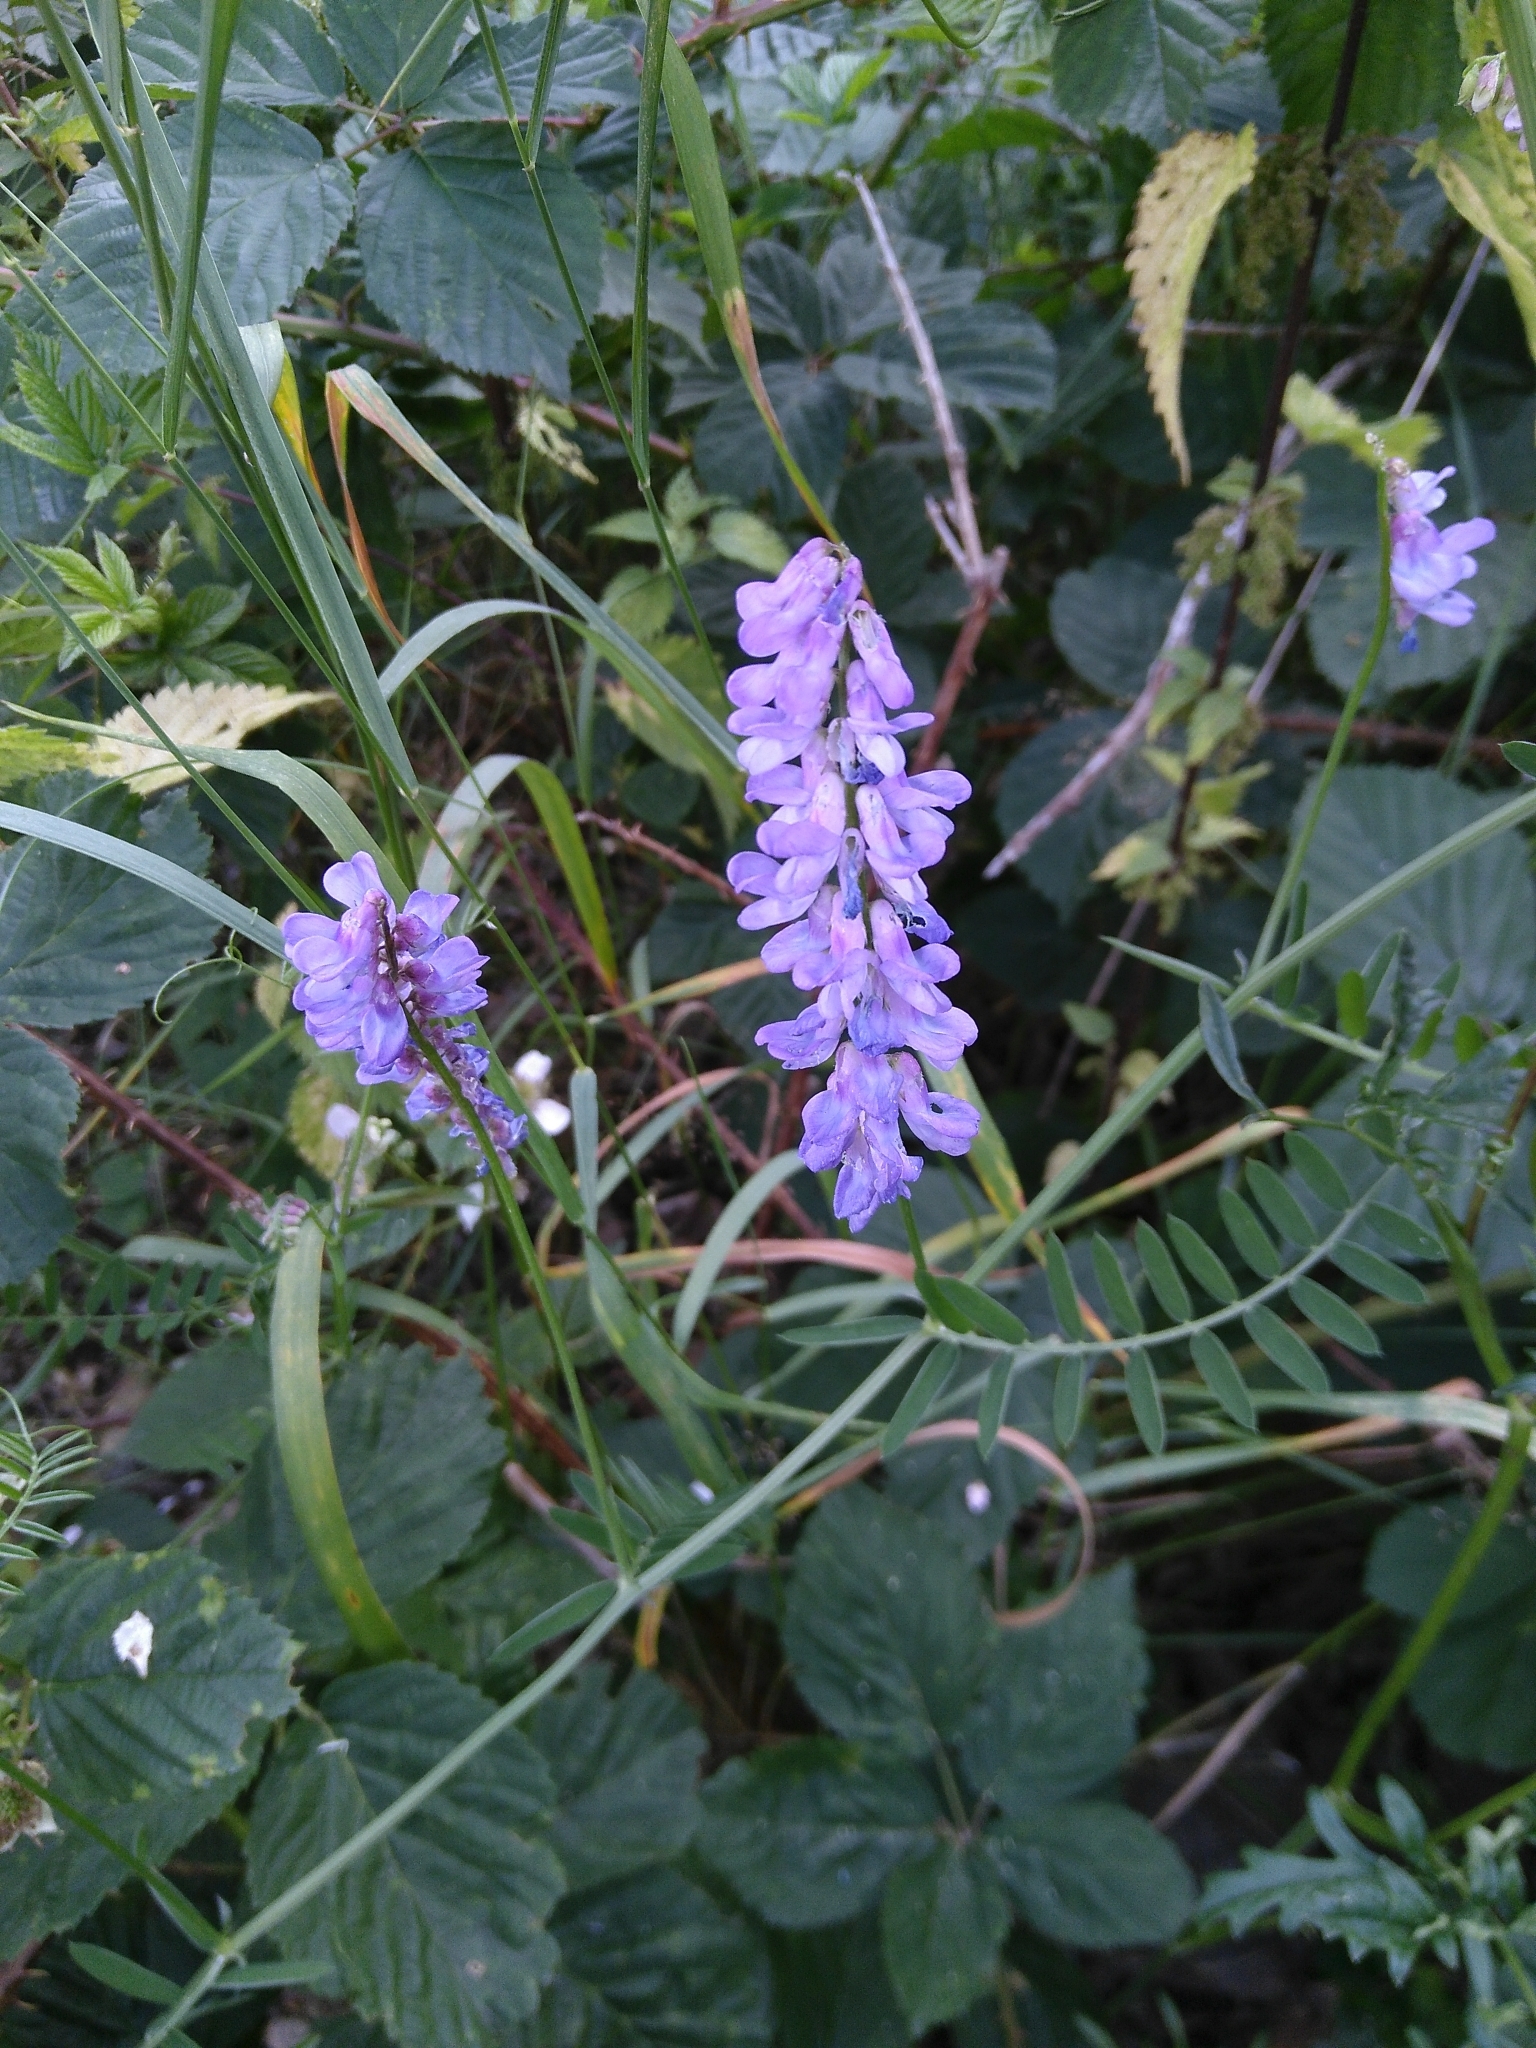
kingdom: Plantae
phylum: Tracheophyta
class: Magnoliopsida
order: Fabales
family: Fabaceae
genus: Vicia
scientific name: Vicia cracca
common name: Bird vetch
